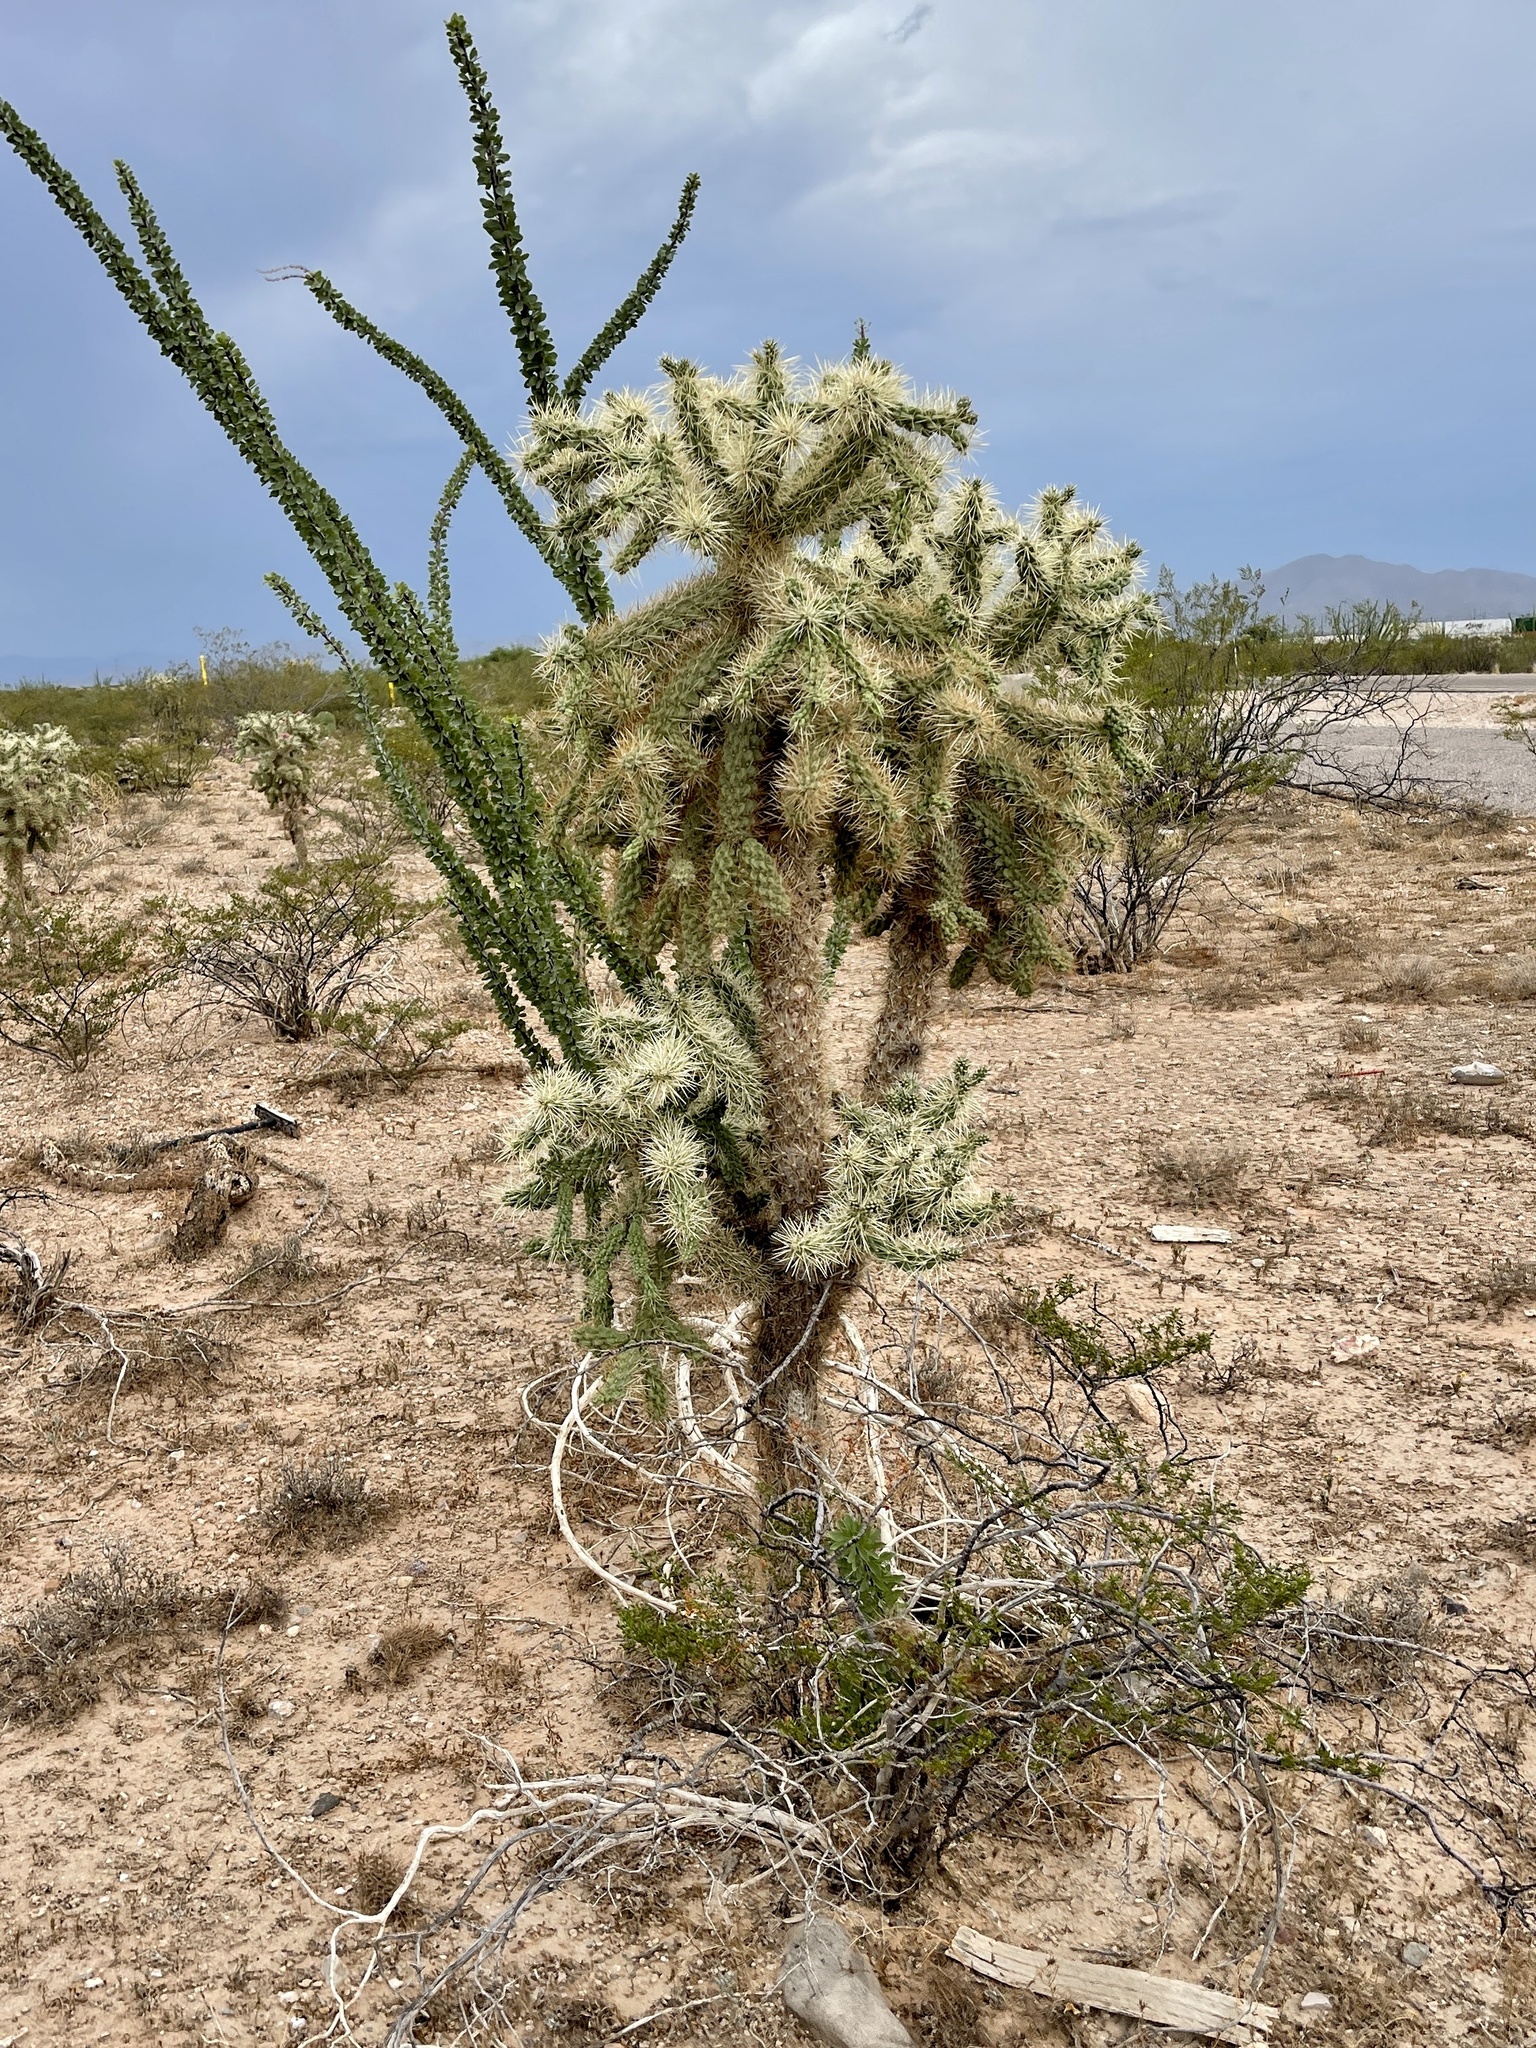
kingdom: Plantae
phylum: Tracheophyta
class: Magnoliopsida
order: Caryophyllales
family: Cactaceae
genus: Cylindropuntia
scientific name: Cylindropuntia fulgida
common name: Jumping cholla
